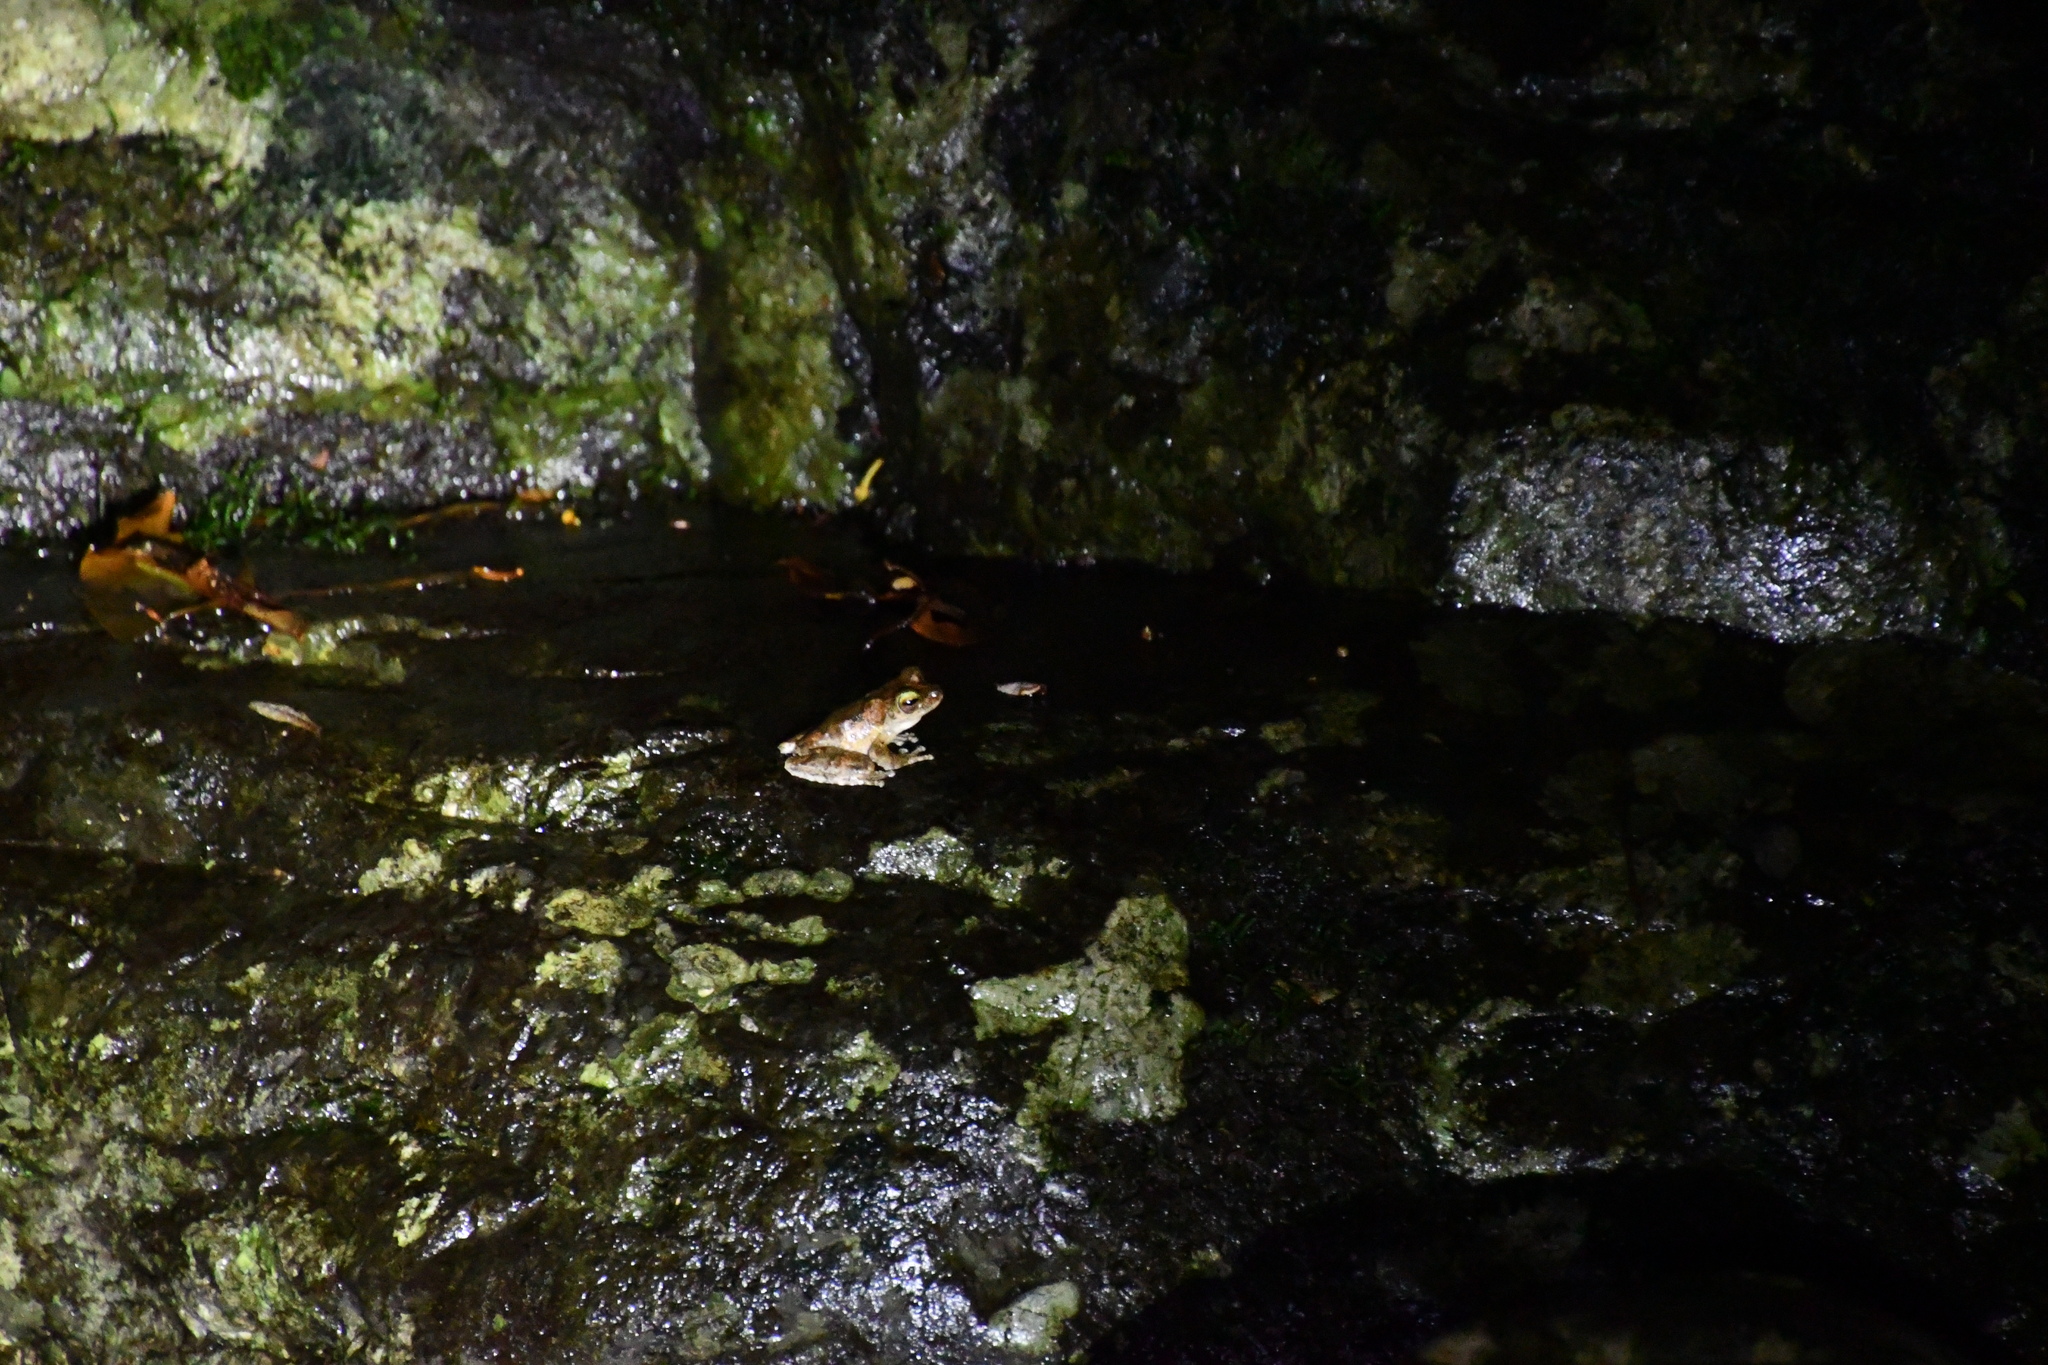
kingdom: Animalia
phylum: Chordata
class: Amphibia
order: Anura
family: Pelodryadidae
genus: Ranoidea
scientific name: Ranoidea serrata
